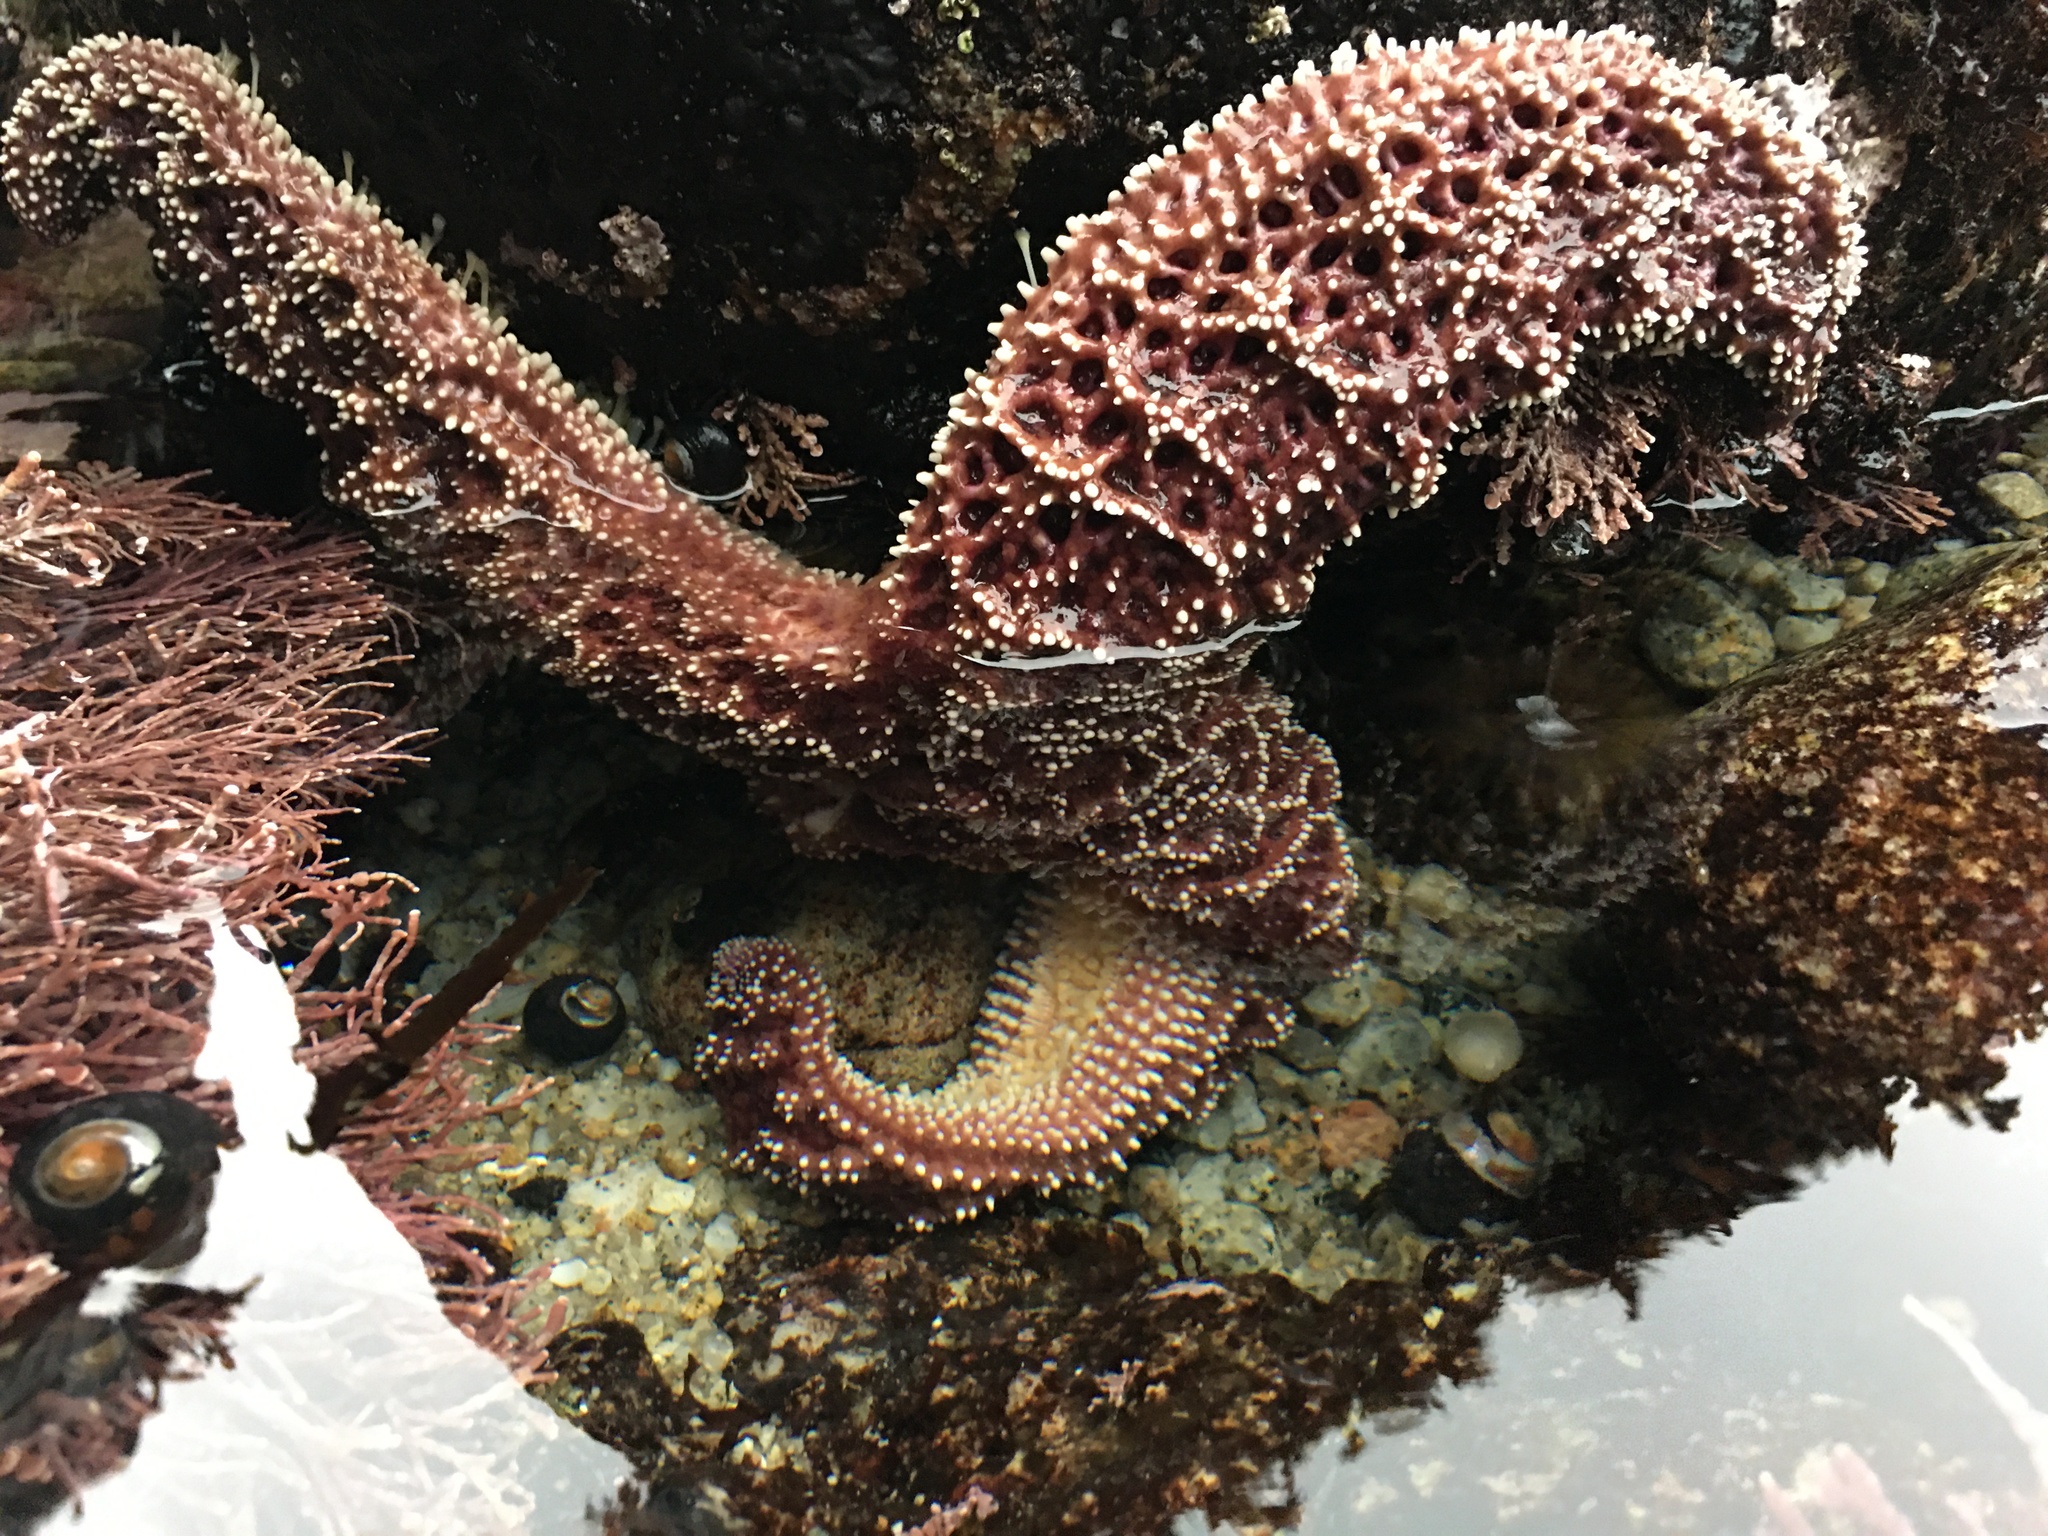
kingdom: Animalia
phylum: Echinodermata
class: Asteroidea
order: Forcipulatida
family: Asteriidae
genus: Pisaster
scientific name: Pisaster ochraceus
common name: Ochre stars
